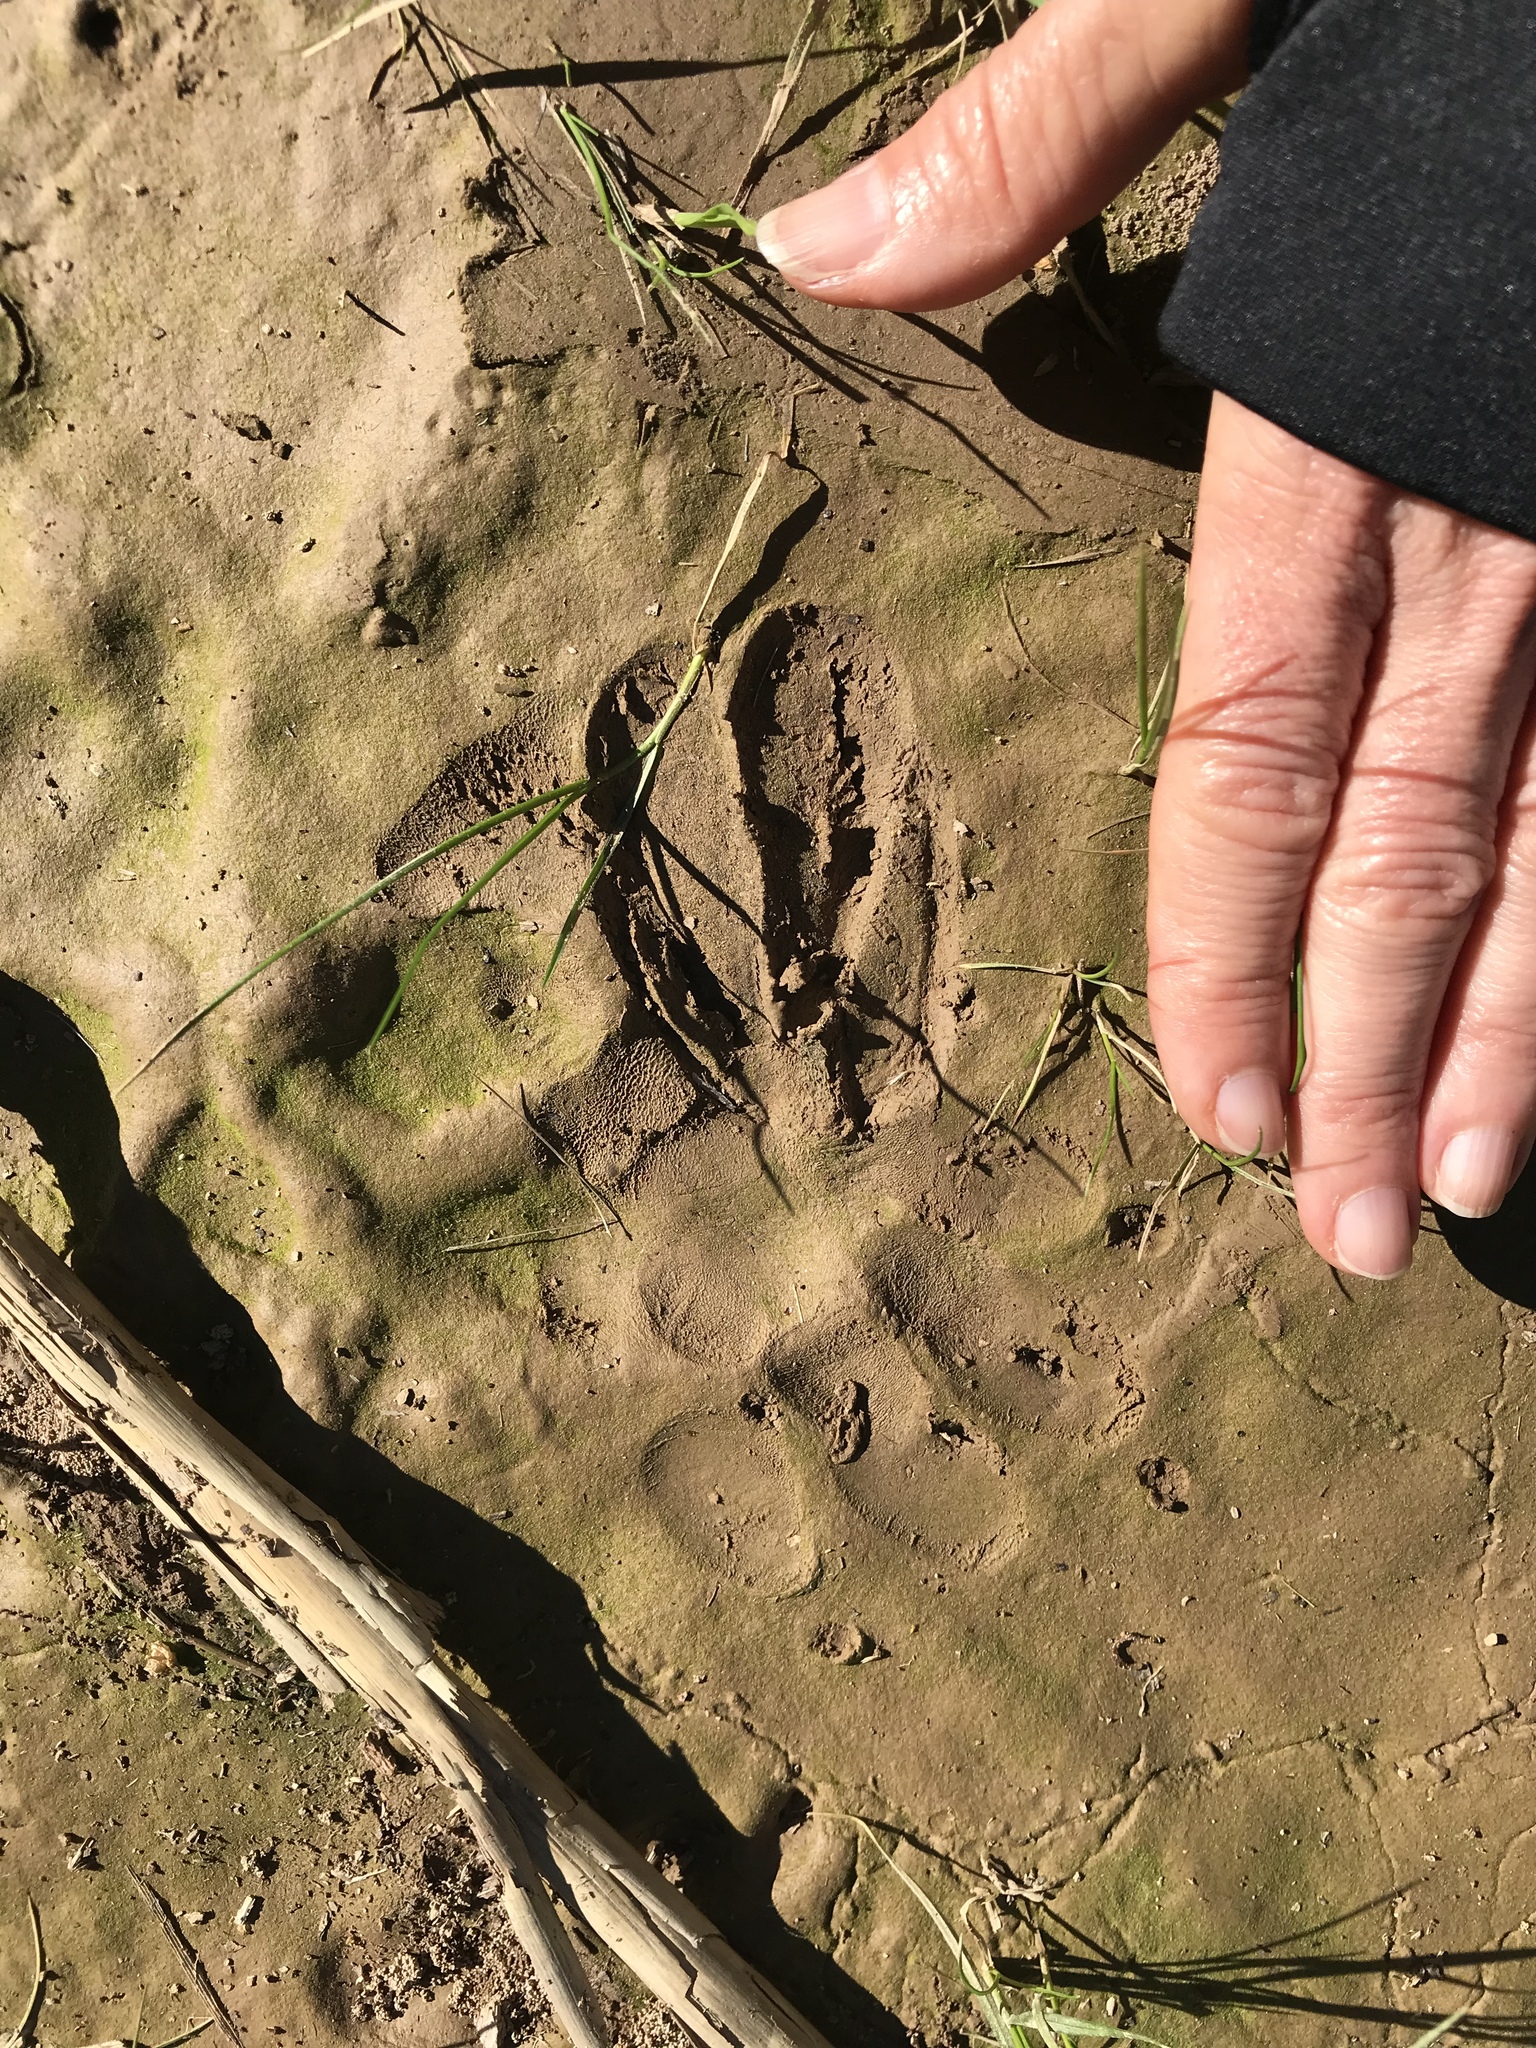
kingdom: Animalia
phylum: Chordata
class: Mammalia
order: Artiodactyla
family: Cervidae
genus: Odocoileus
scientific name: Odocoileus hemionus
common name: Mule deer
